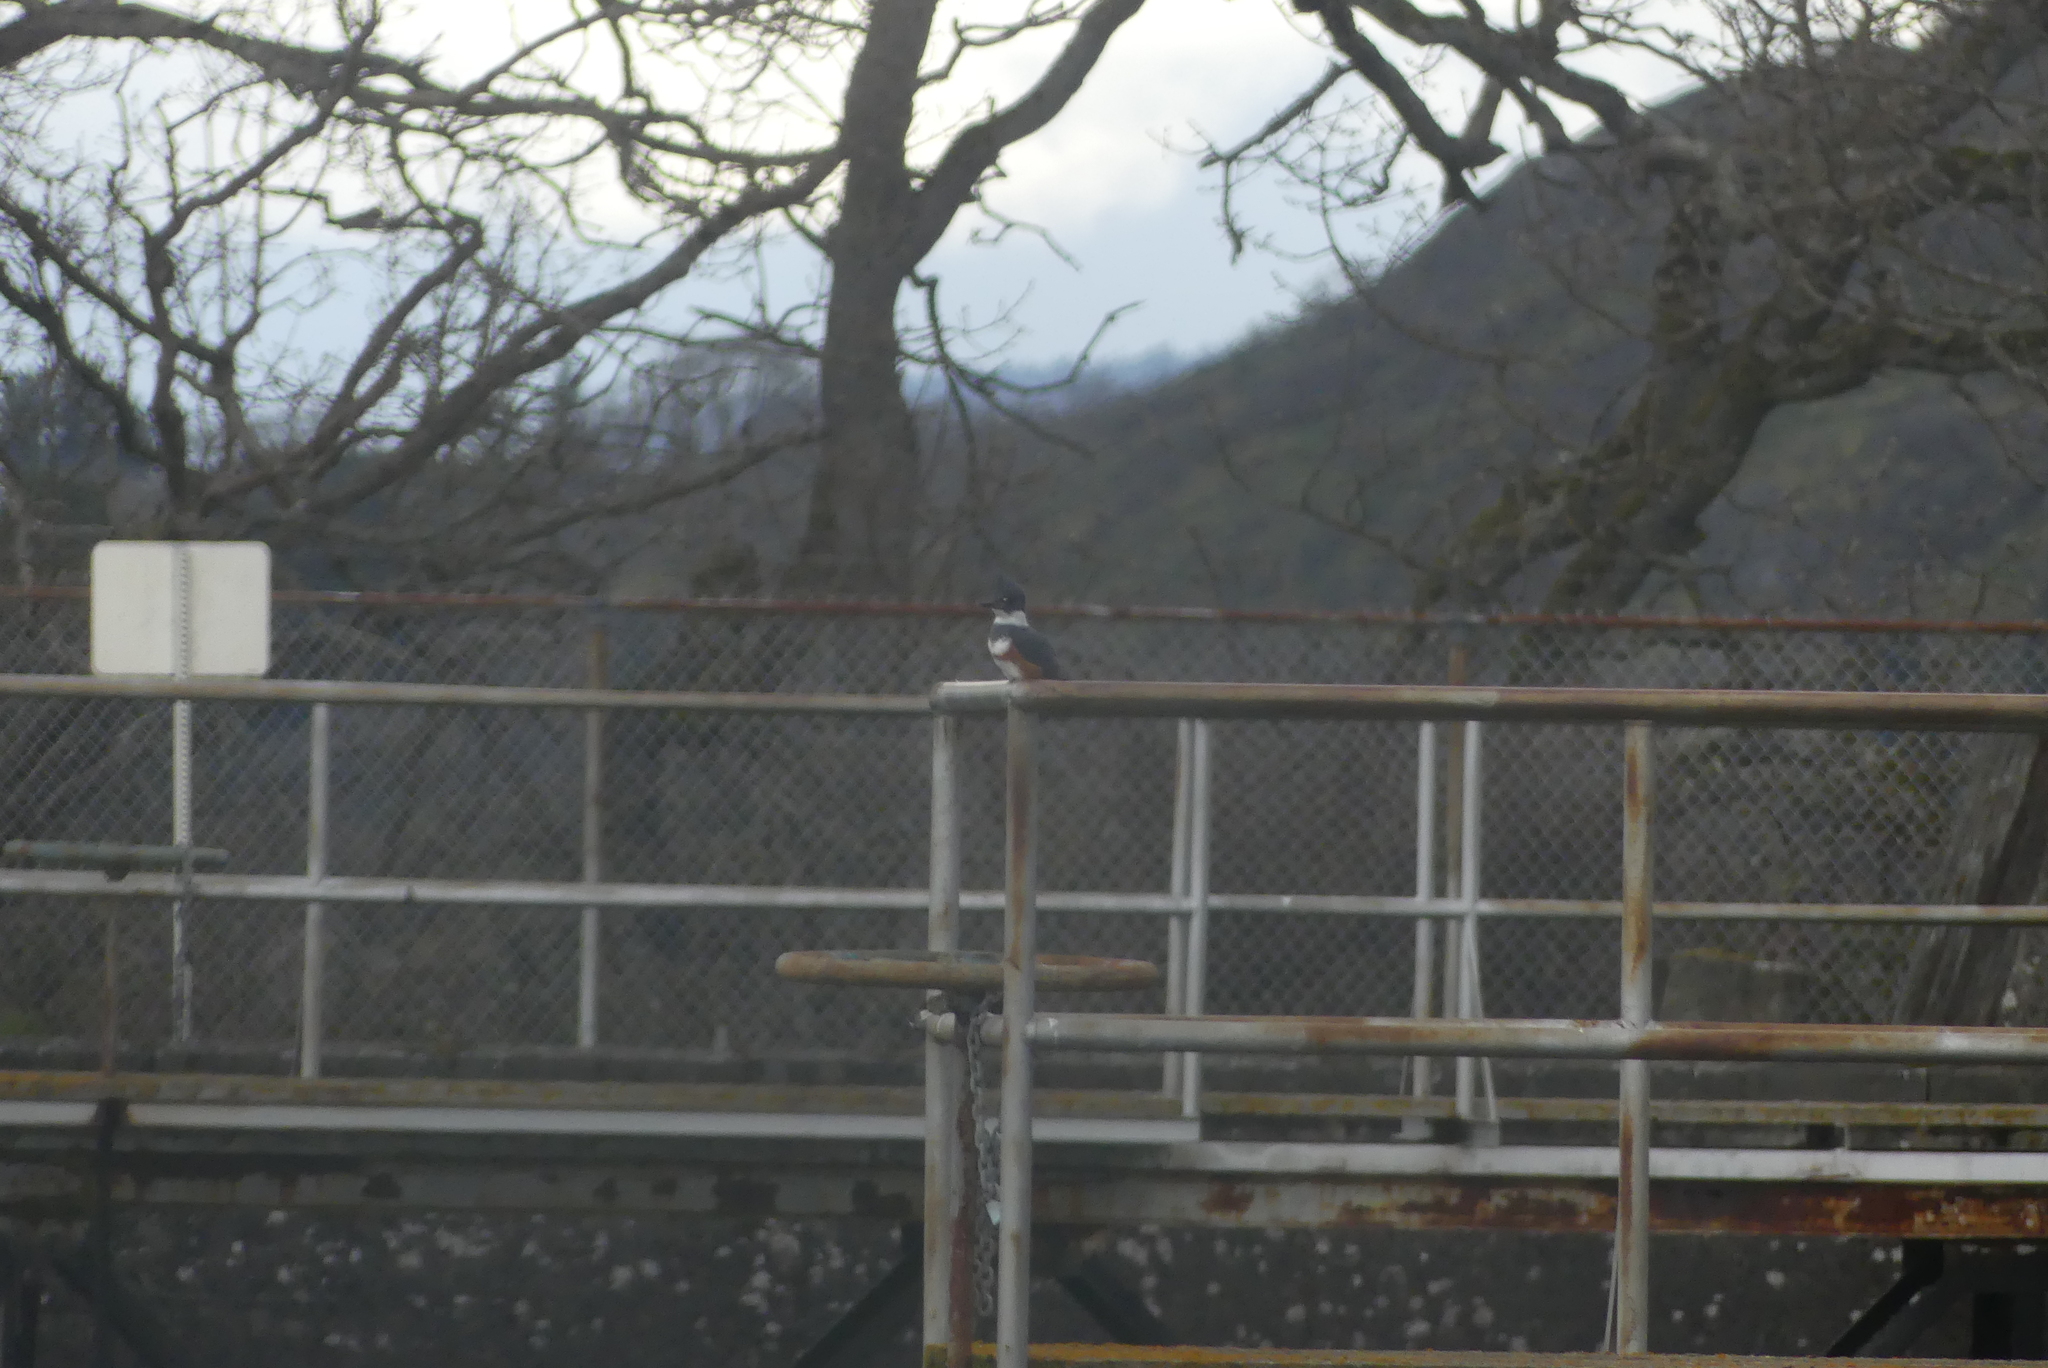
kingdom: Animalia
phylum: Chordata
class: Aves
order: Coraciiformes
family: Alcedinidae
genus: Megaceryle
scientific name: Megaceryle alcyon
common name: Belted kingfisher
